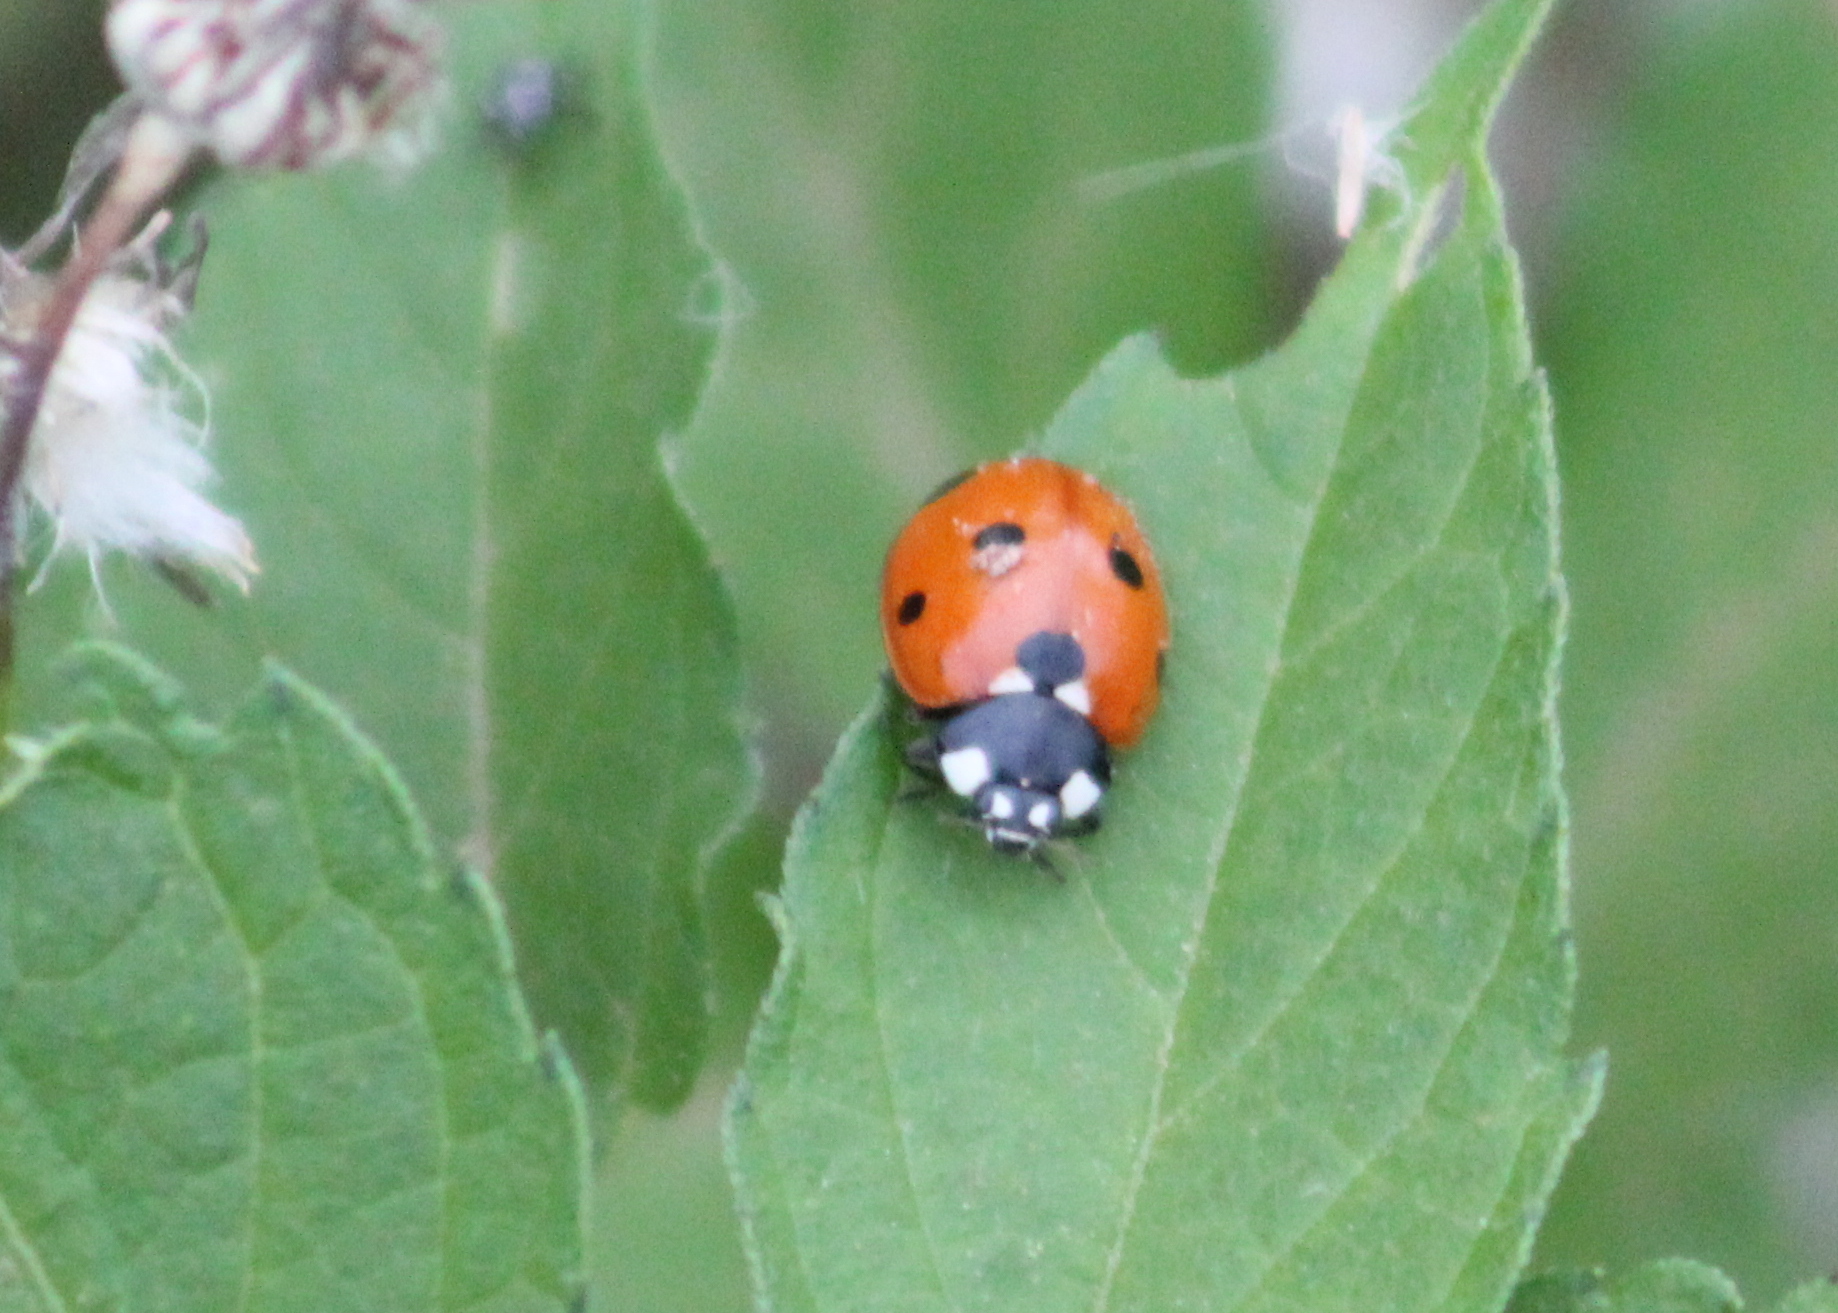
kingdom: Animalia
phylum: Arthropoda
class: Insecta
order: Coleoptera
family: Coccinellidae
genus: Coccinella
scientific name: Coccinella septempunctata
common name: Sevenspotted lady beetle
